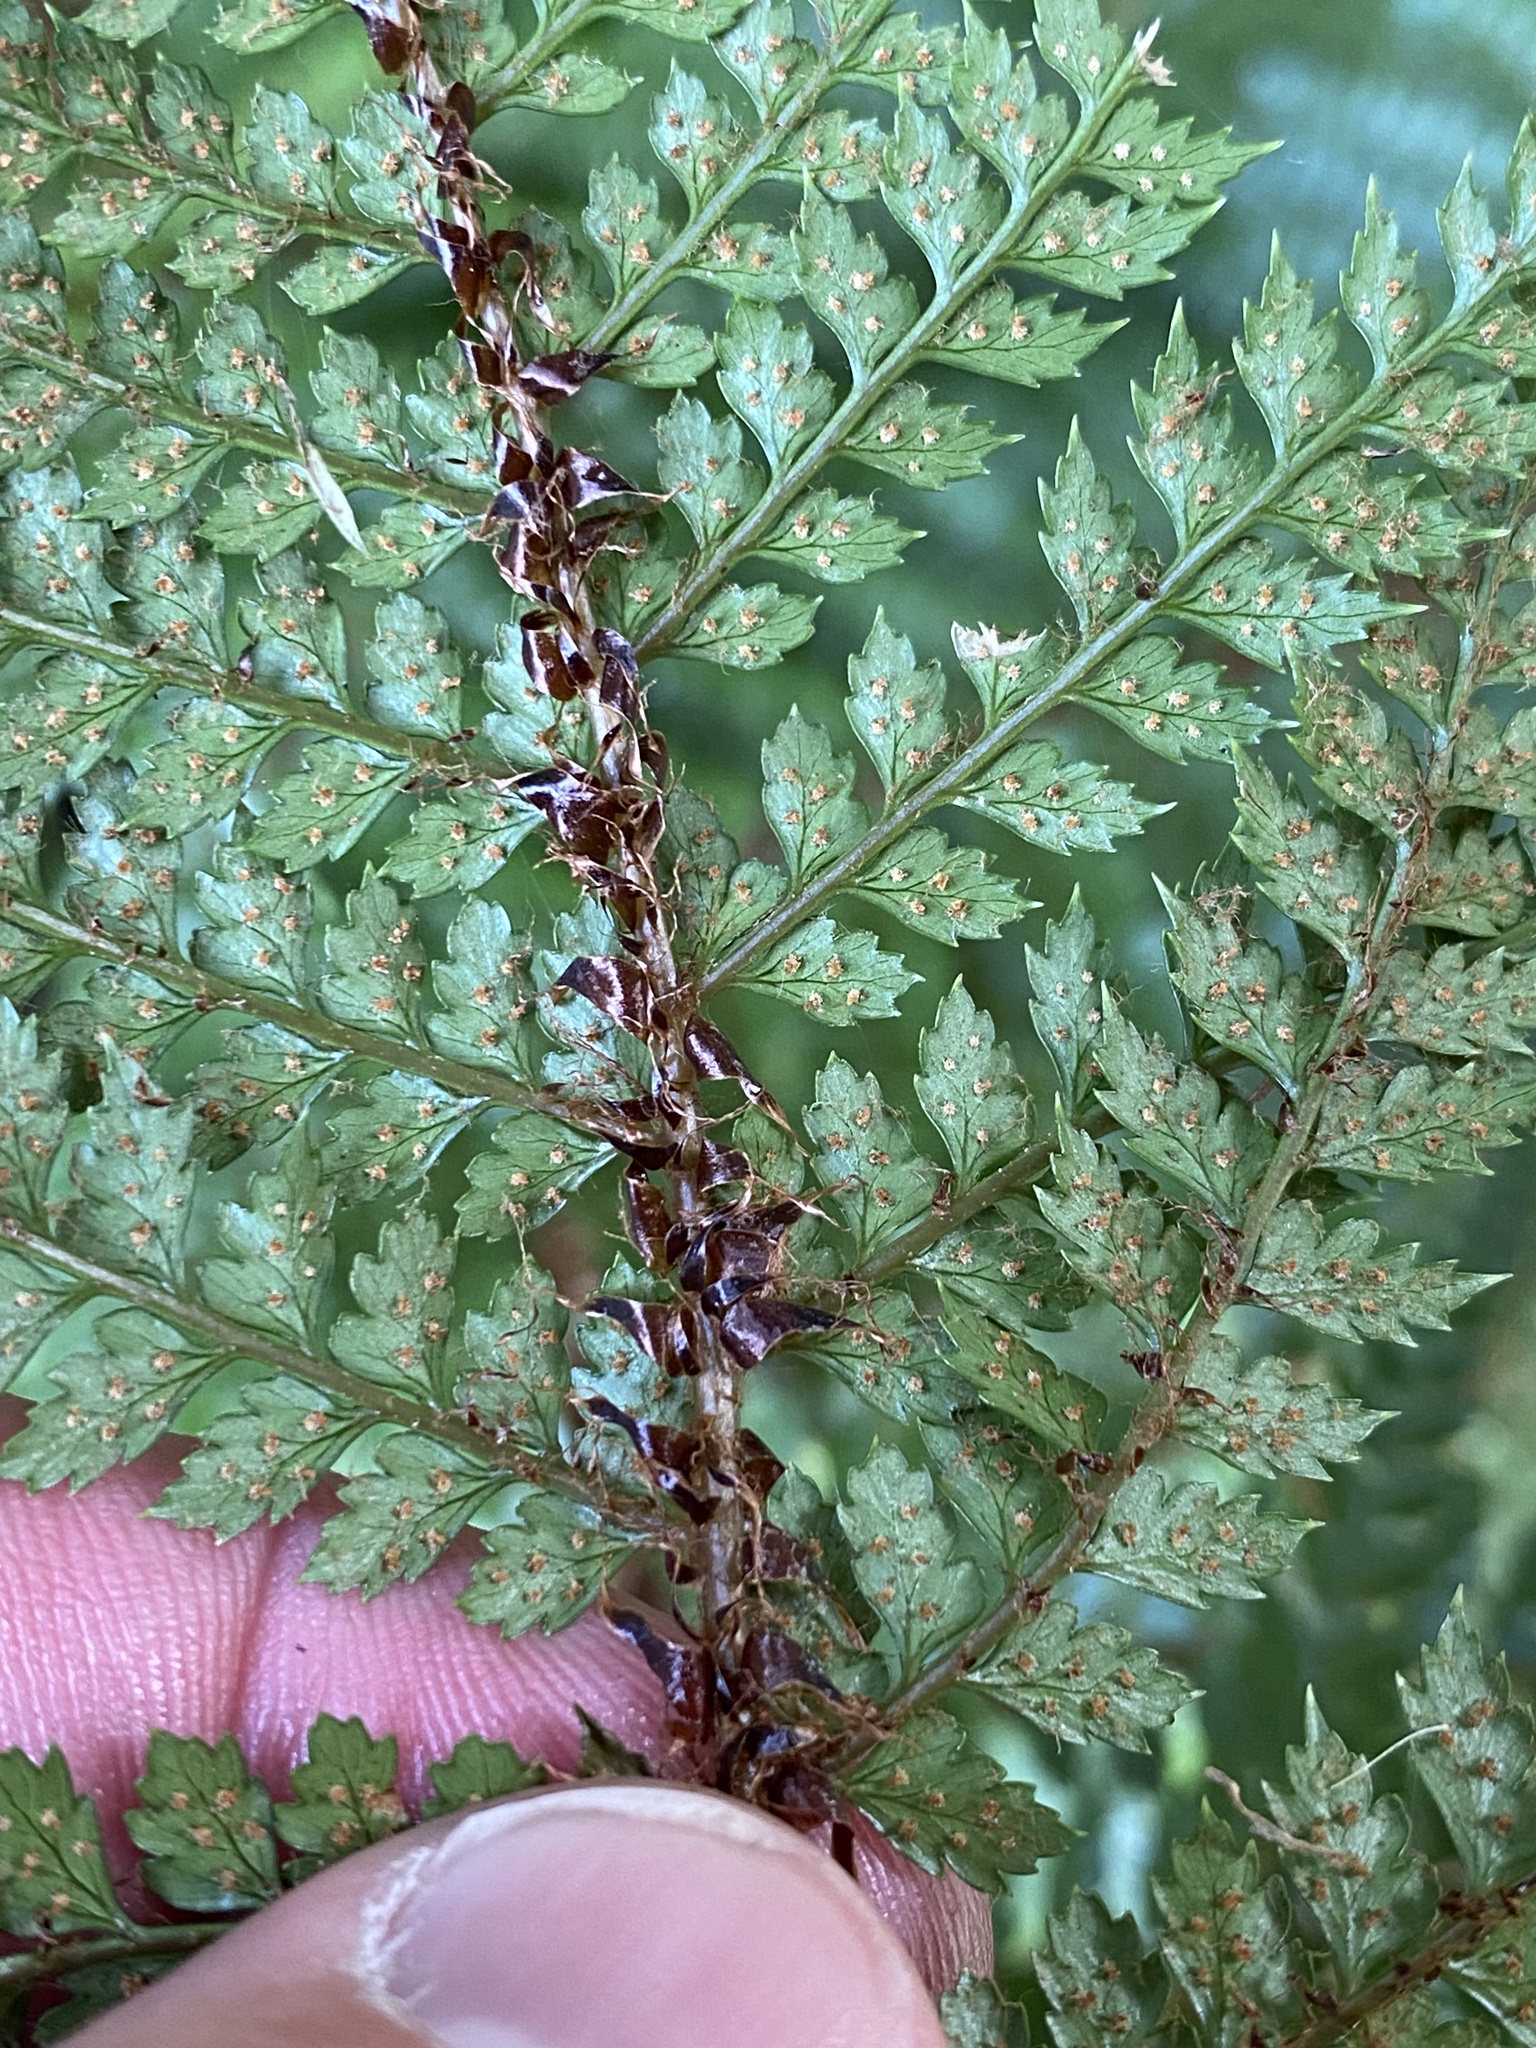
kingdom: Plantae
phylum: Tracheophyta
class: Polypodiopsida
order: Polypodiales
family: Dryopteridaceae
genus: Polystichum
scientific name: Polystichum vestitum
